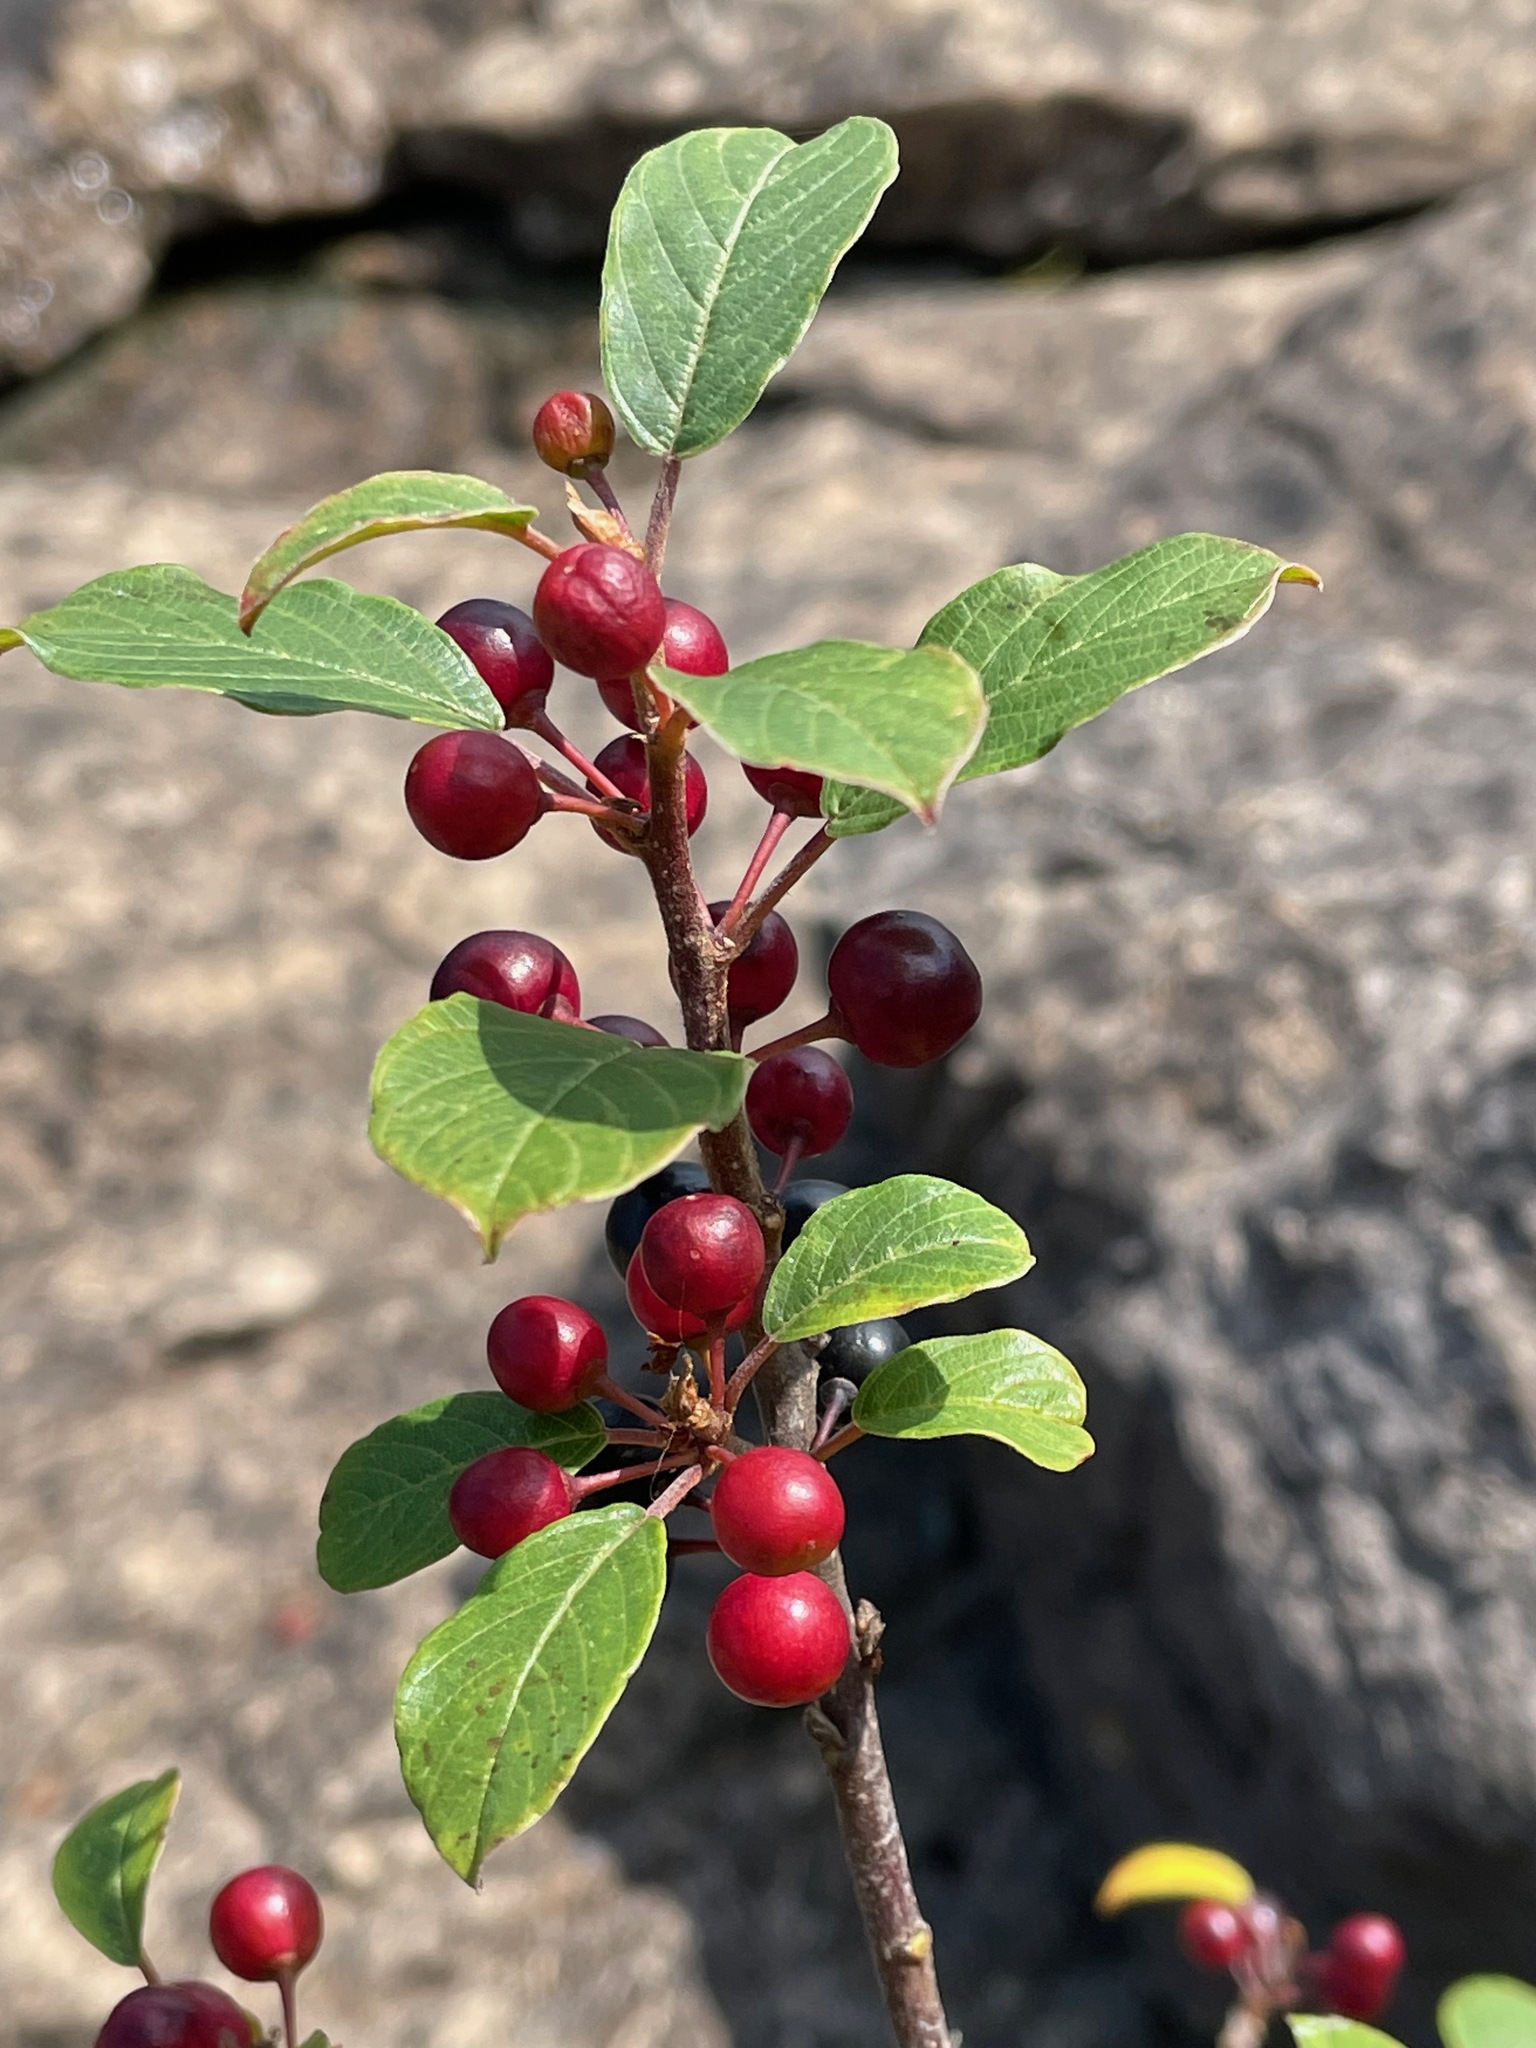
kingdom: Plantae
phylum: Tracheophyta
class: Magnoliopsida
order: Rosales
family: Rhamnaceae
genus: Frangula
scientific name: Frangula alnus
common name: Alder buckthorn
